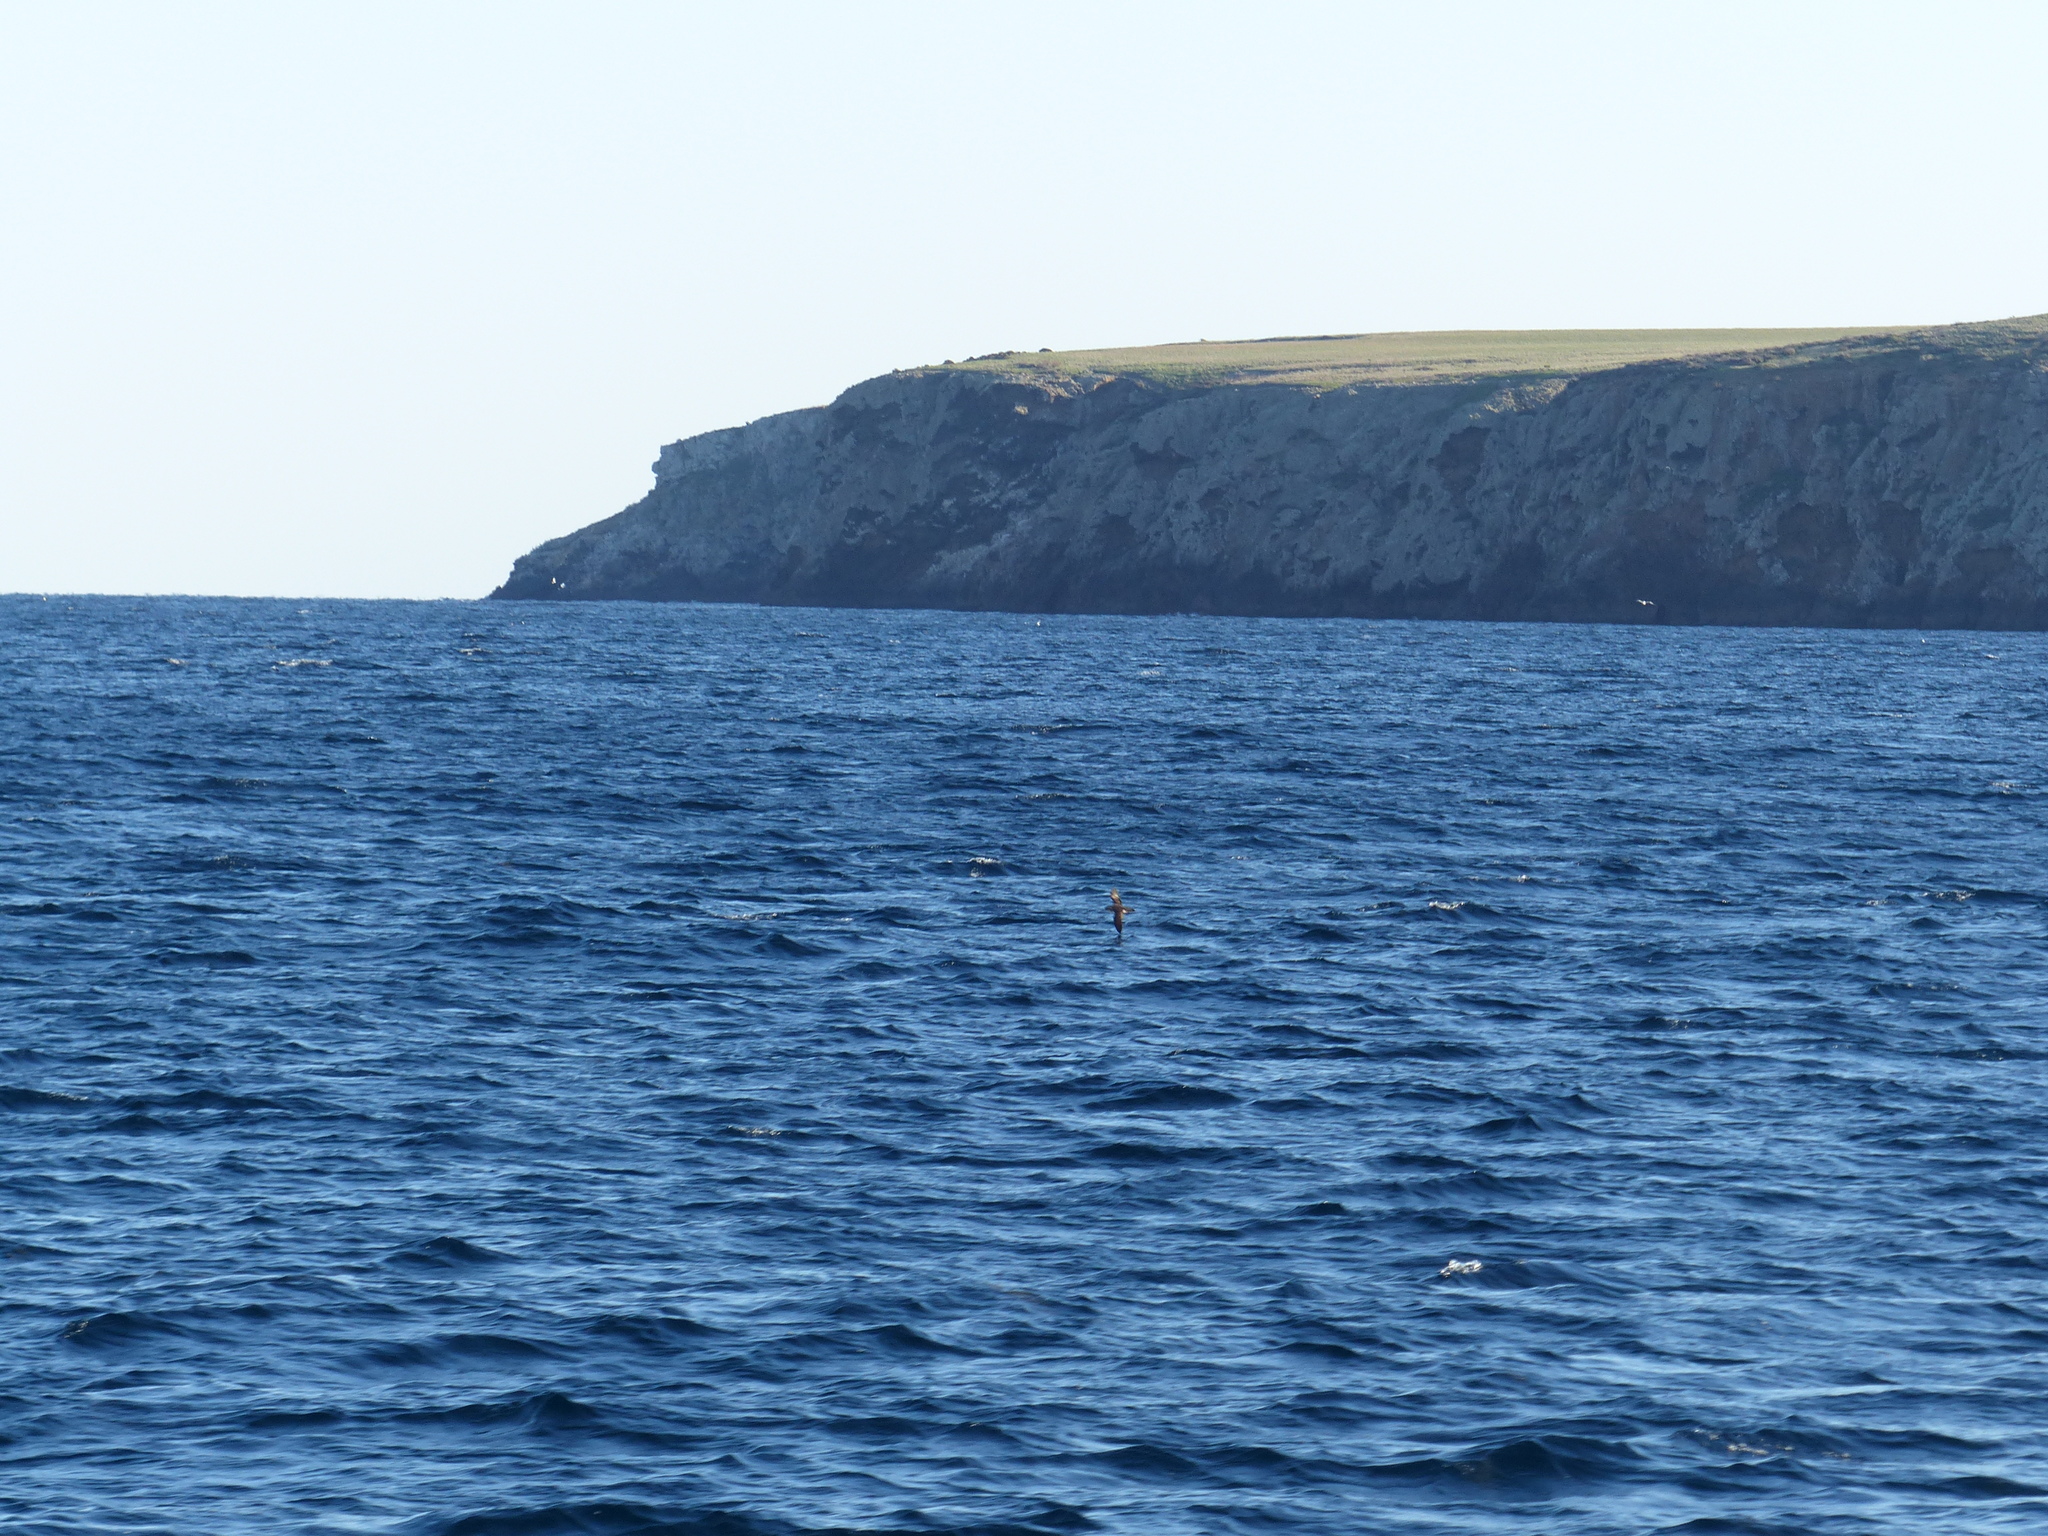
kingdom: Animalia
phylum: Chordata
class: Aves
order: Procellariiformes
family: Procellariidae
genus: Puffinus
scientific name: Puffinus opisthomelas
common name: Black-vented shearwater
